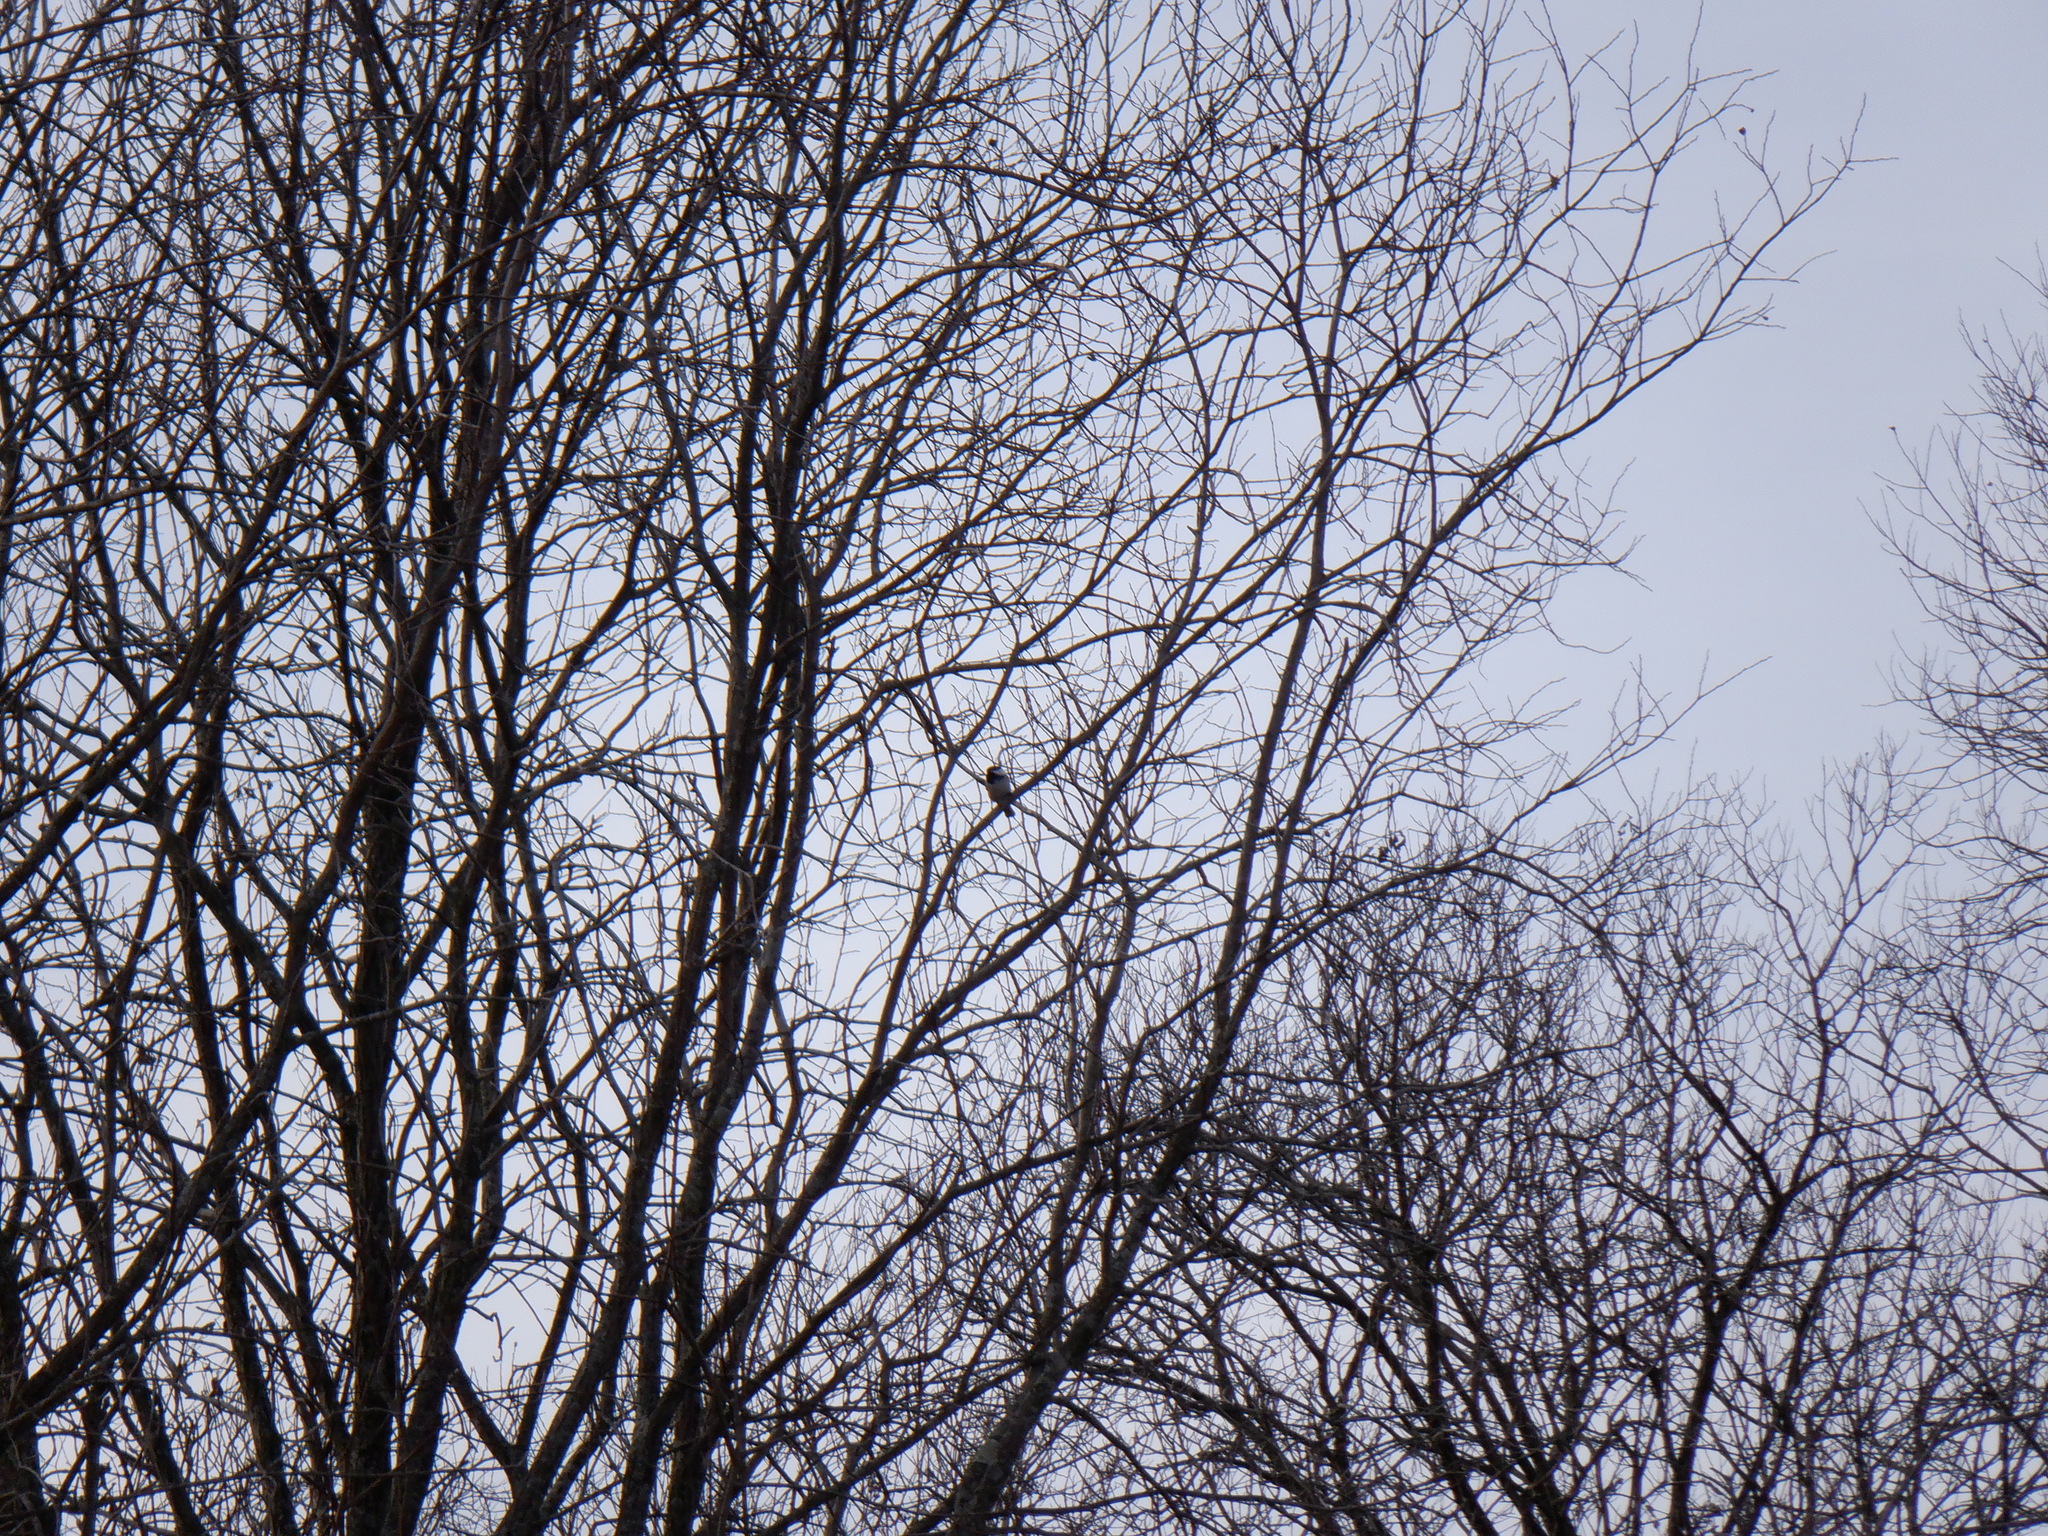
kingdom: Animalia
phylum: Chordata
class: Aves
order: Passeriformes
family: Paridae
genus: Poecile
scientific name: Poecile atricapillus
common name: Black-capped chickadee
